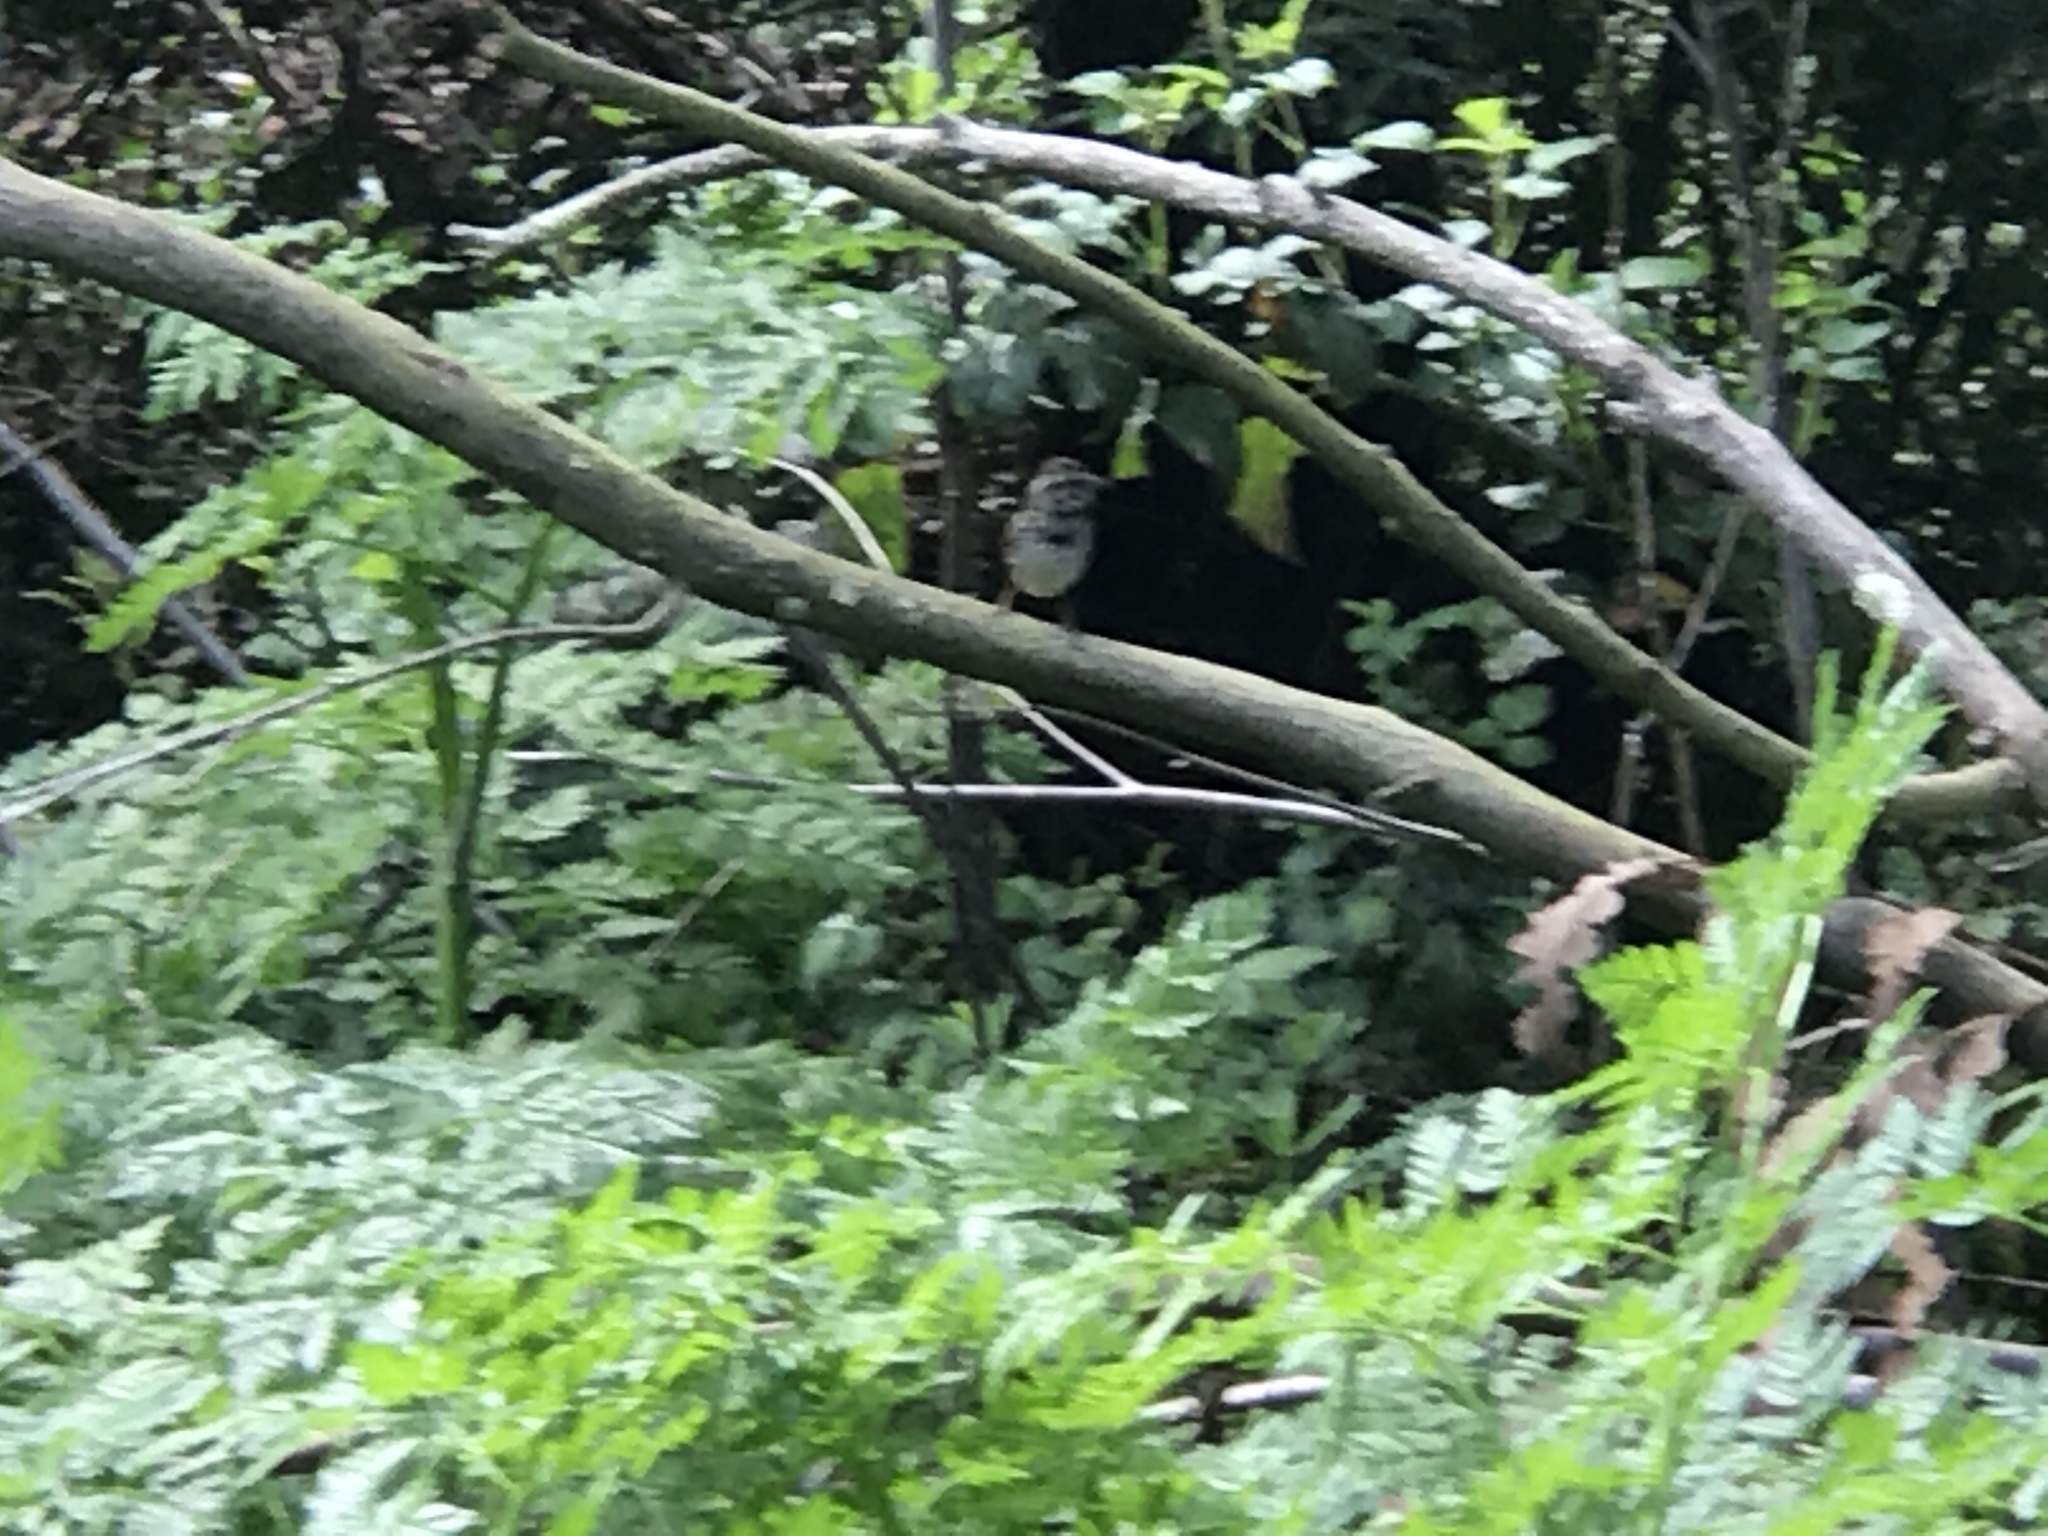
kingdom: Animalia
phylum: Chordata
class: Aves
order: Passeriformes
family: Passerellidae
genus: Melospiza
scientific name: Melospiza melodia
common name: Song sparrow
